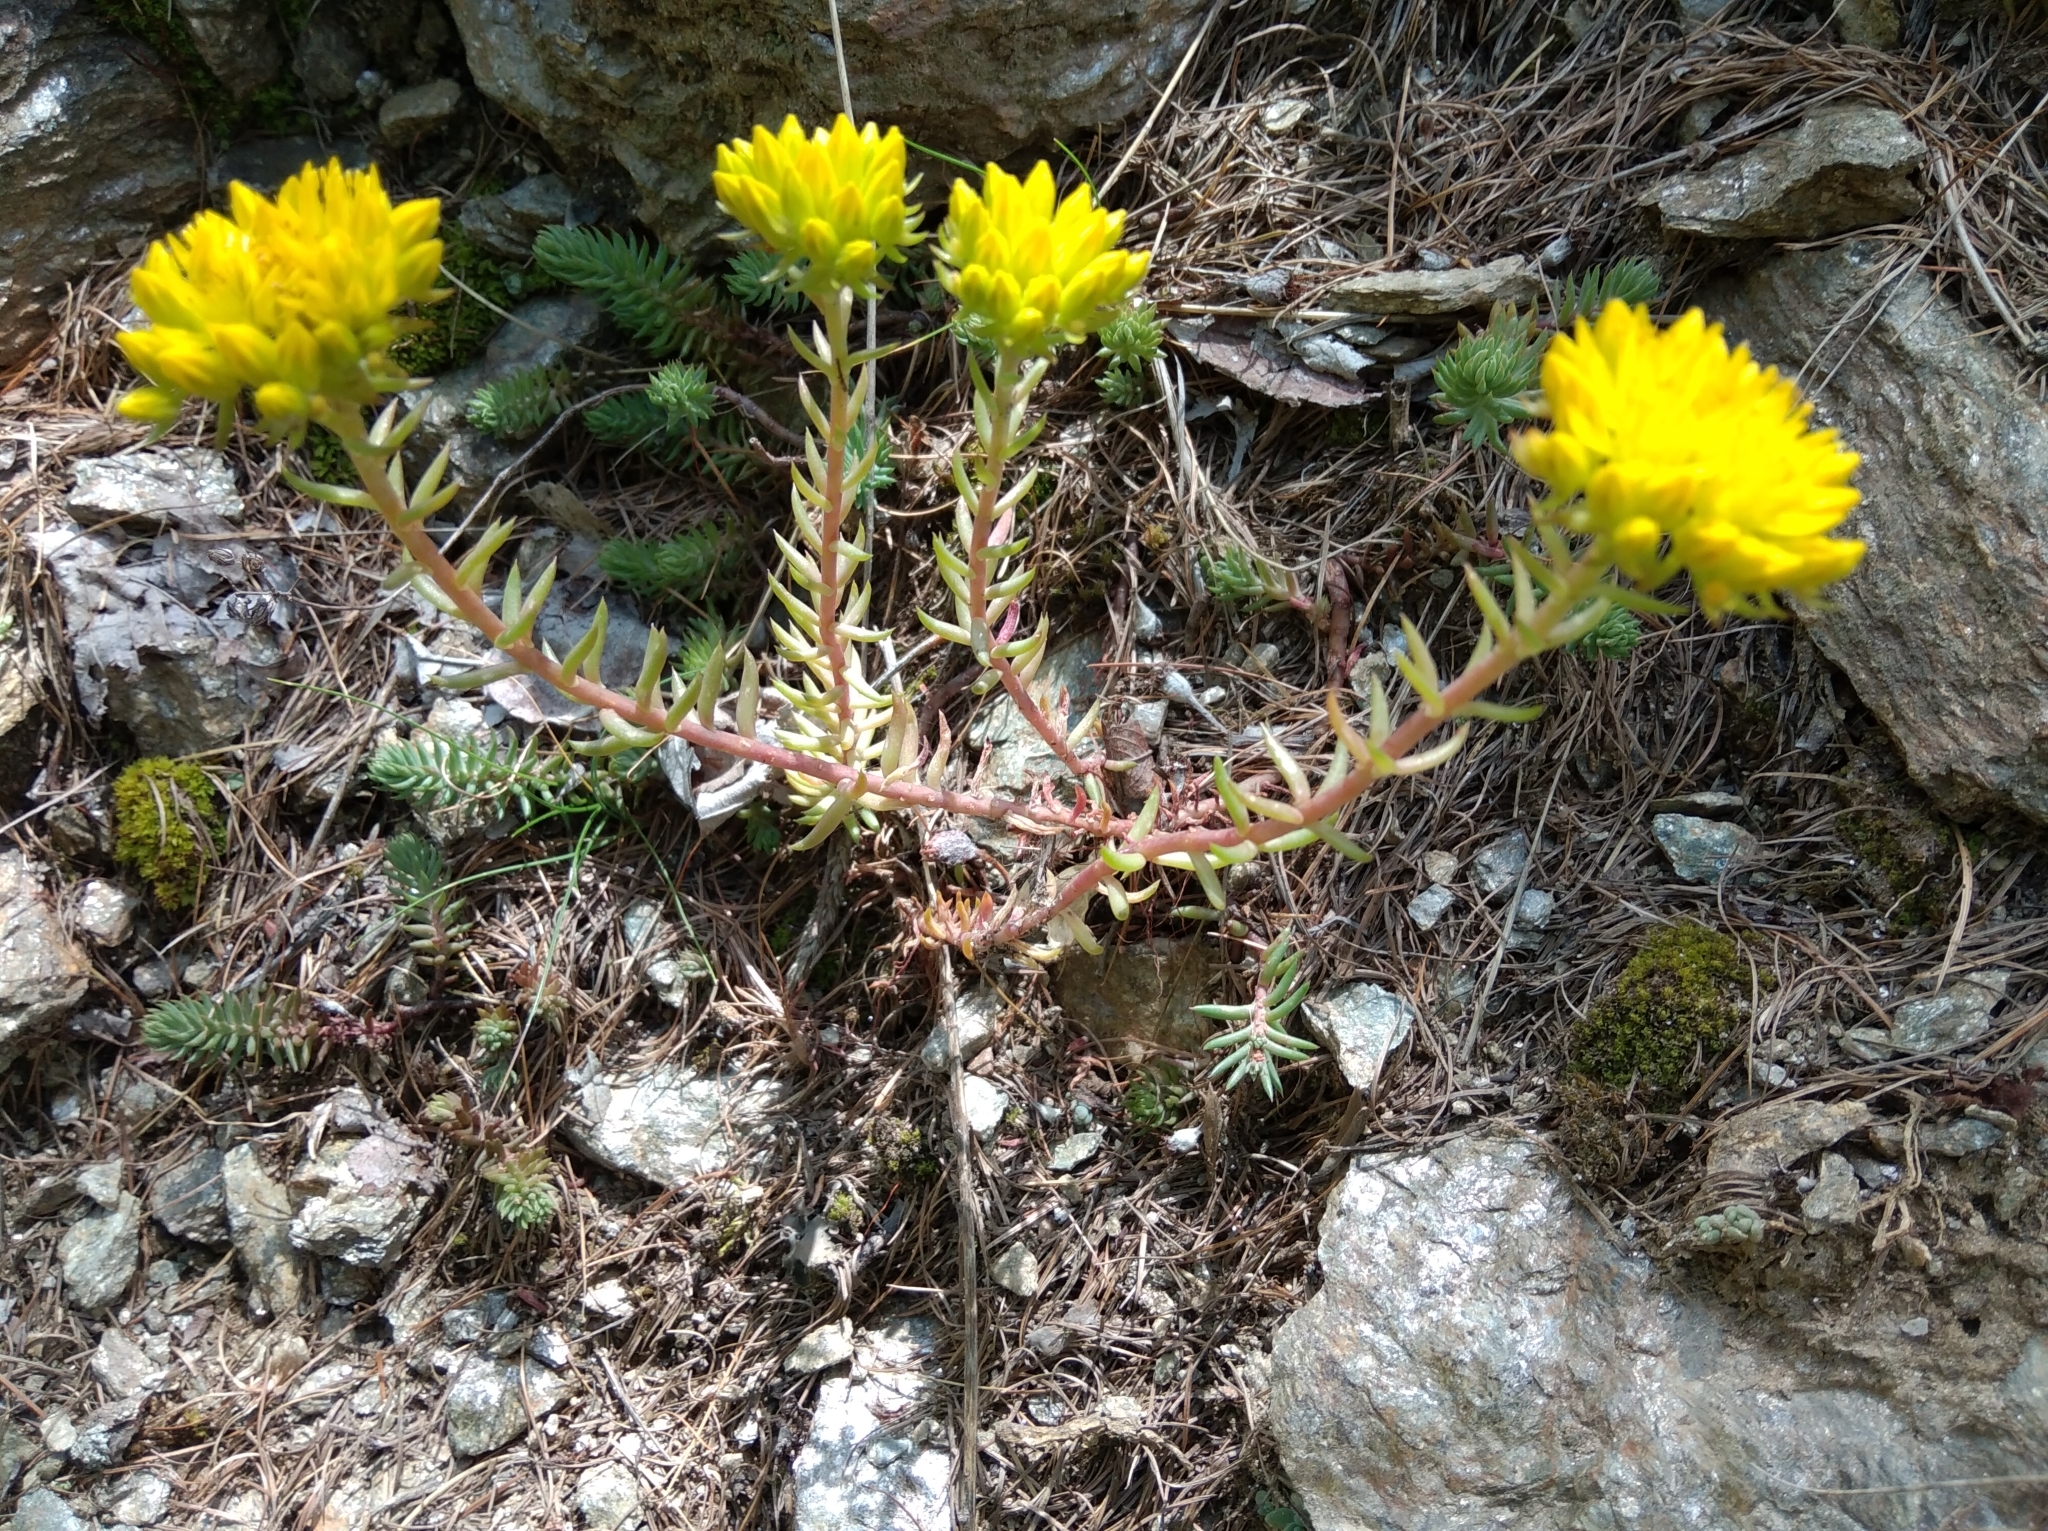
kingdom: Plantae
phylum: Tracheophyta
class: Magnoliopsida
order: Saxifragales
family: Crassulaceae
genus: Petrosedum
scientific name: Petrosedum montanum
